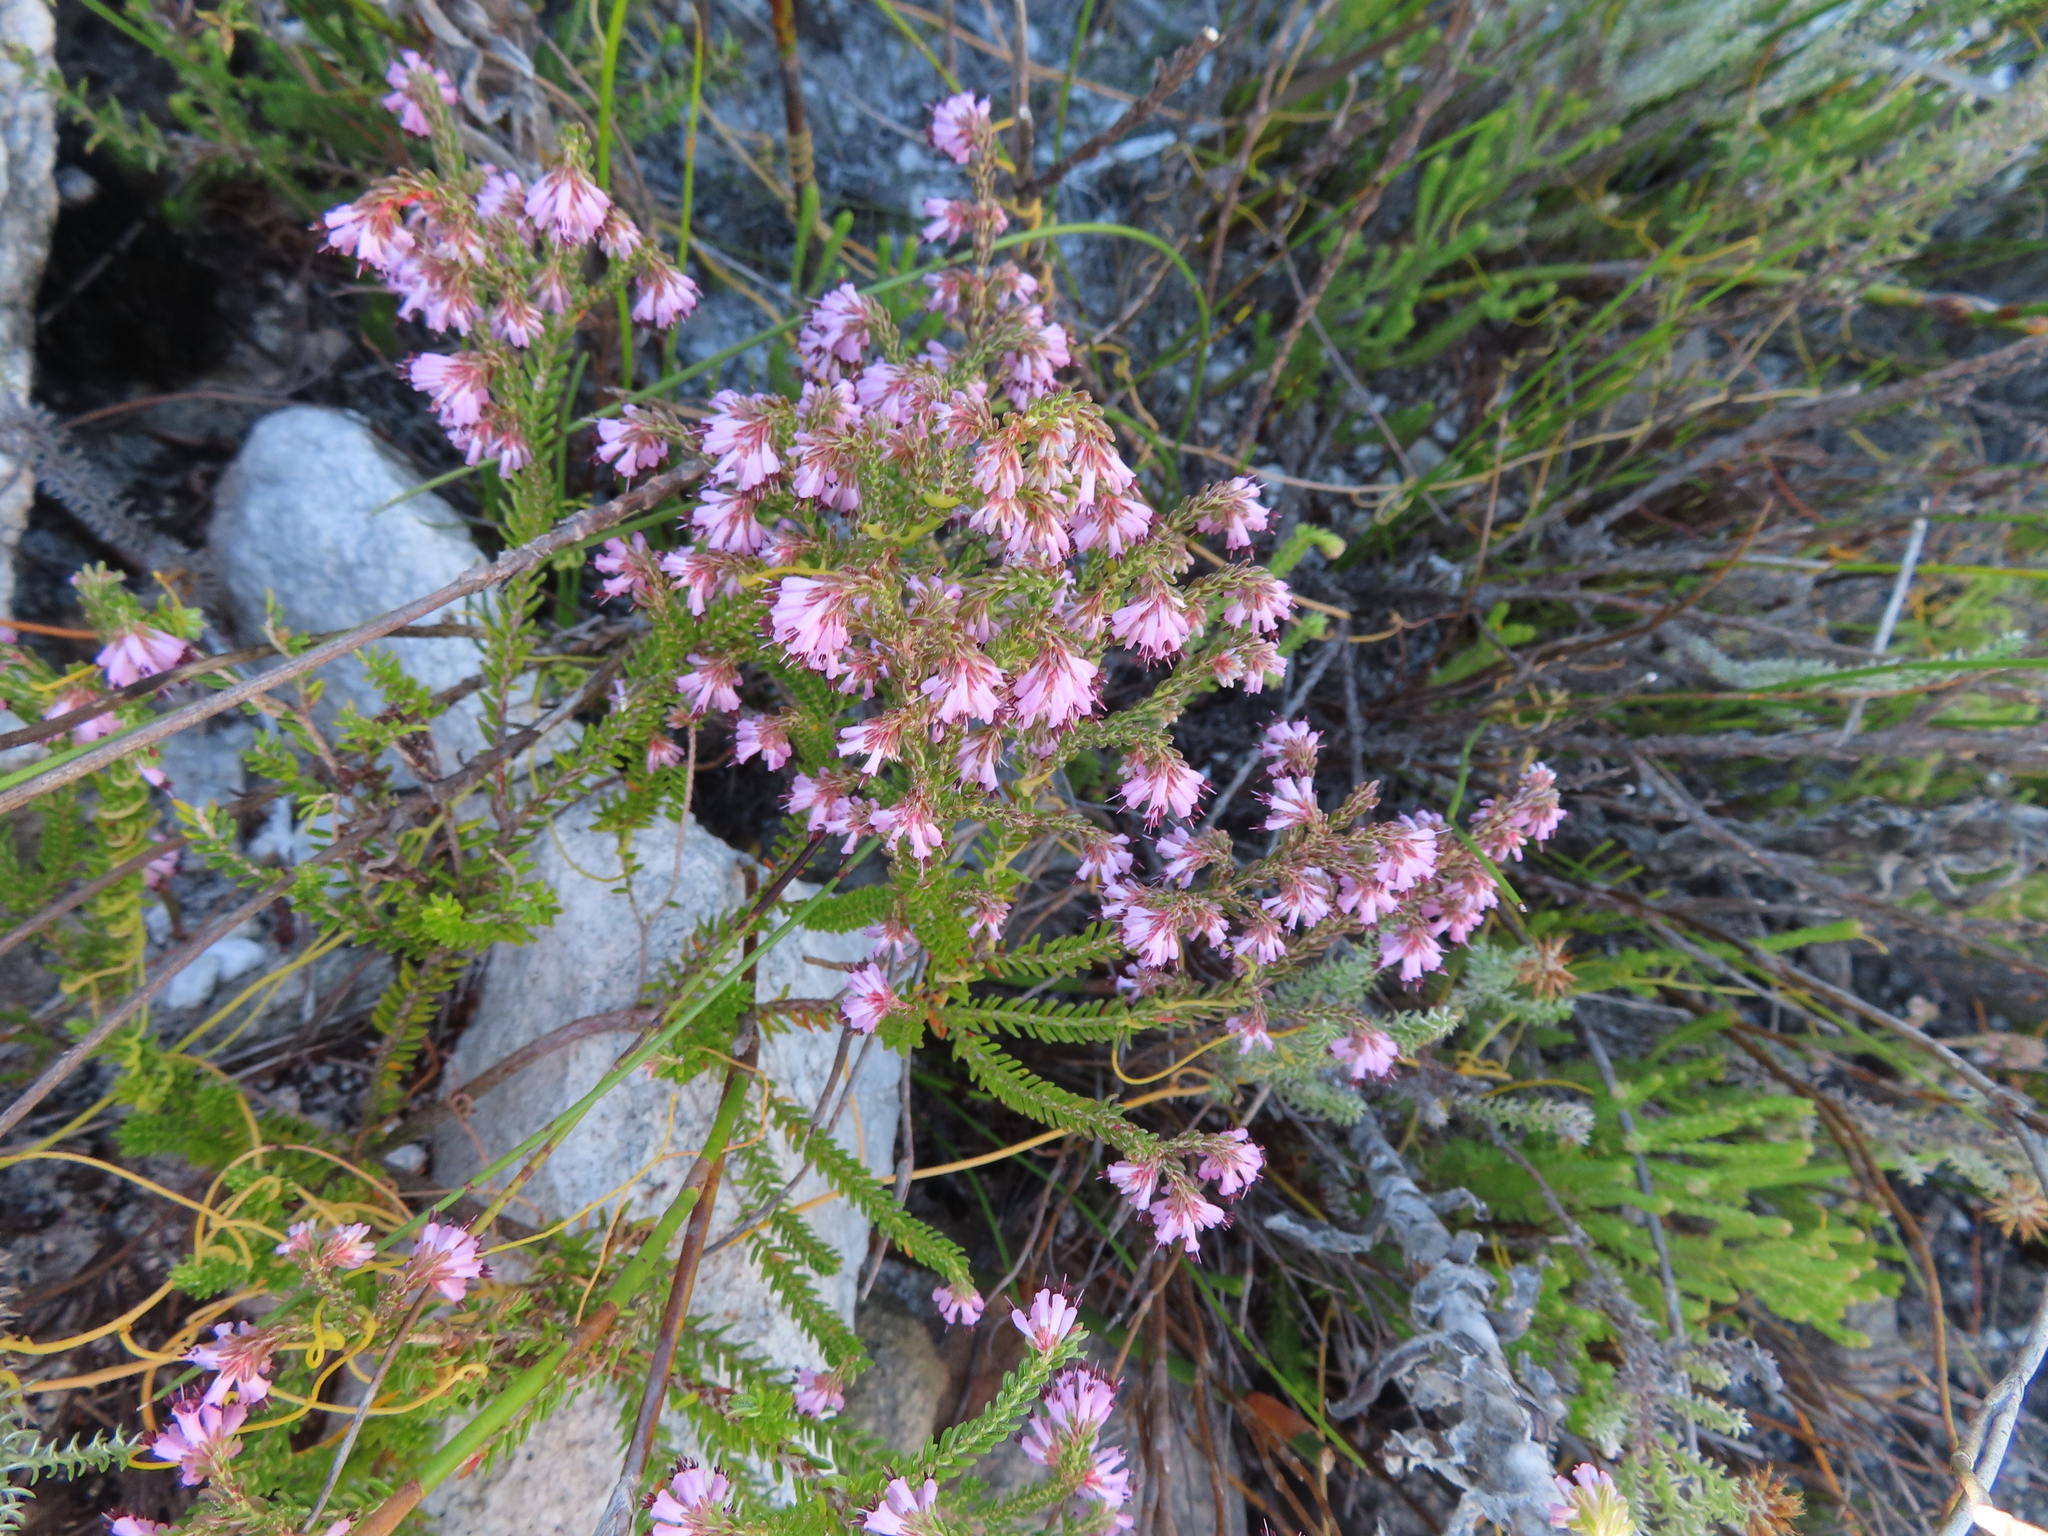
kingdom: Plantae
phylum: Tracheophyta
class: Magnoliopsida
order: Ericales
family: Ericaceae
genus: Erica
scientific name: Erica labialis
